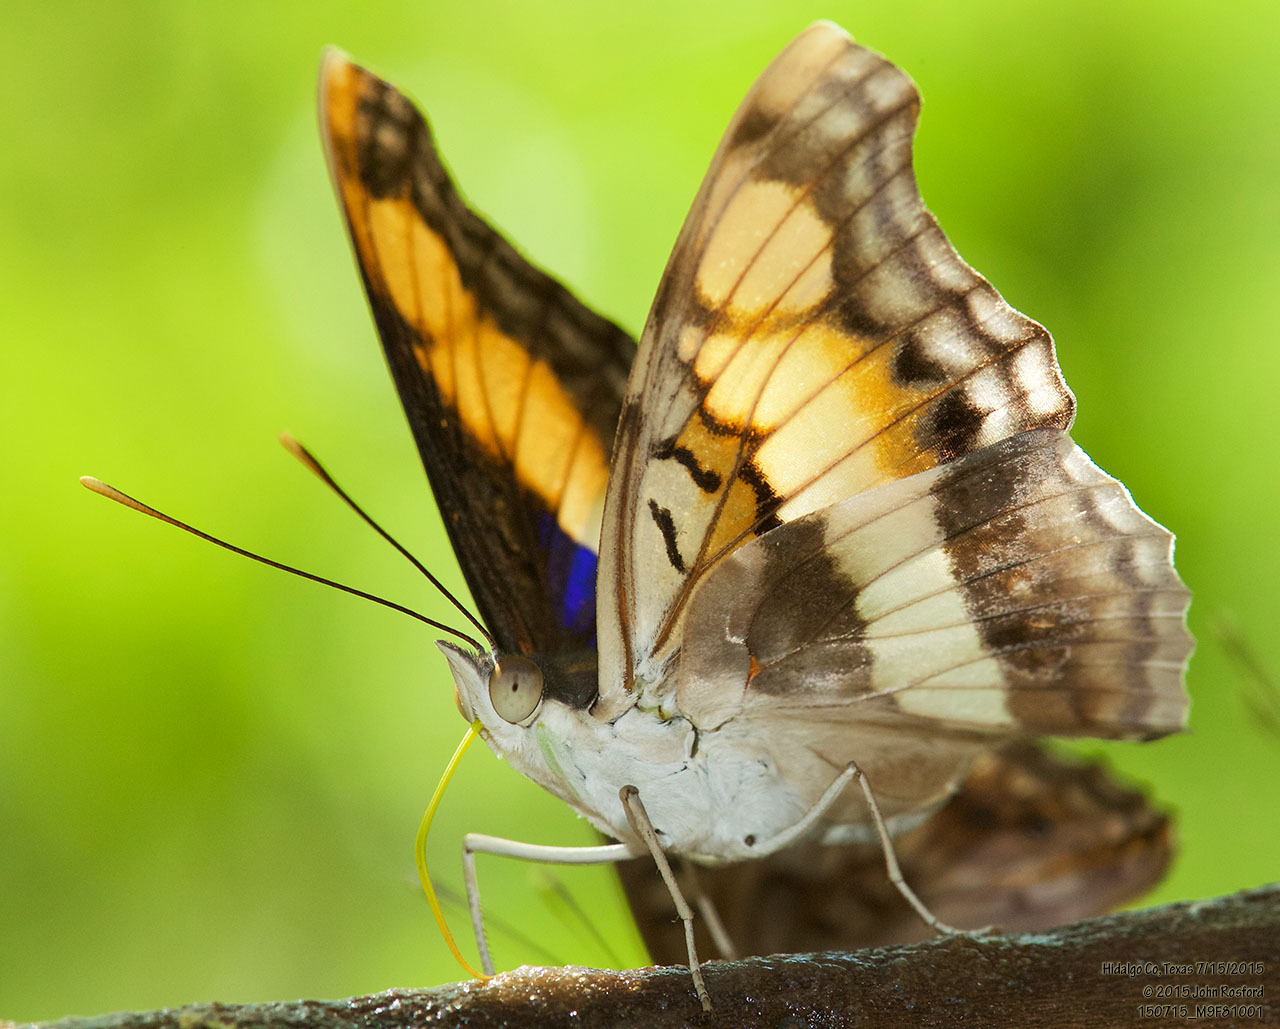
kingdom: Animalia
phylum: Arthropoda
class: Insecta
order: Lepidoptera
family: Nymphalidae
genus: Doxocopa
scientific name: Doxocopa laure
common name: Silver emperor
